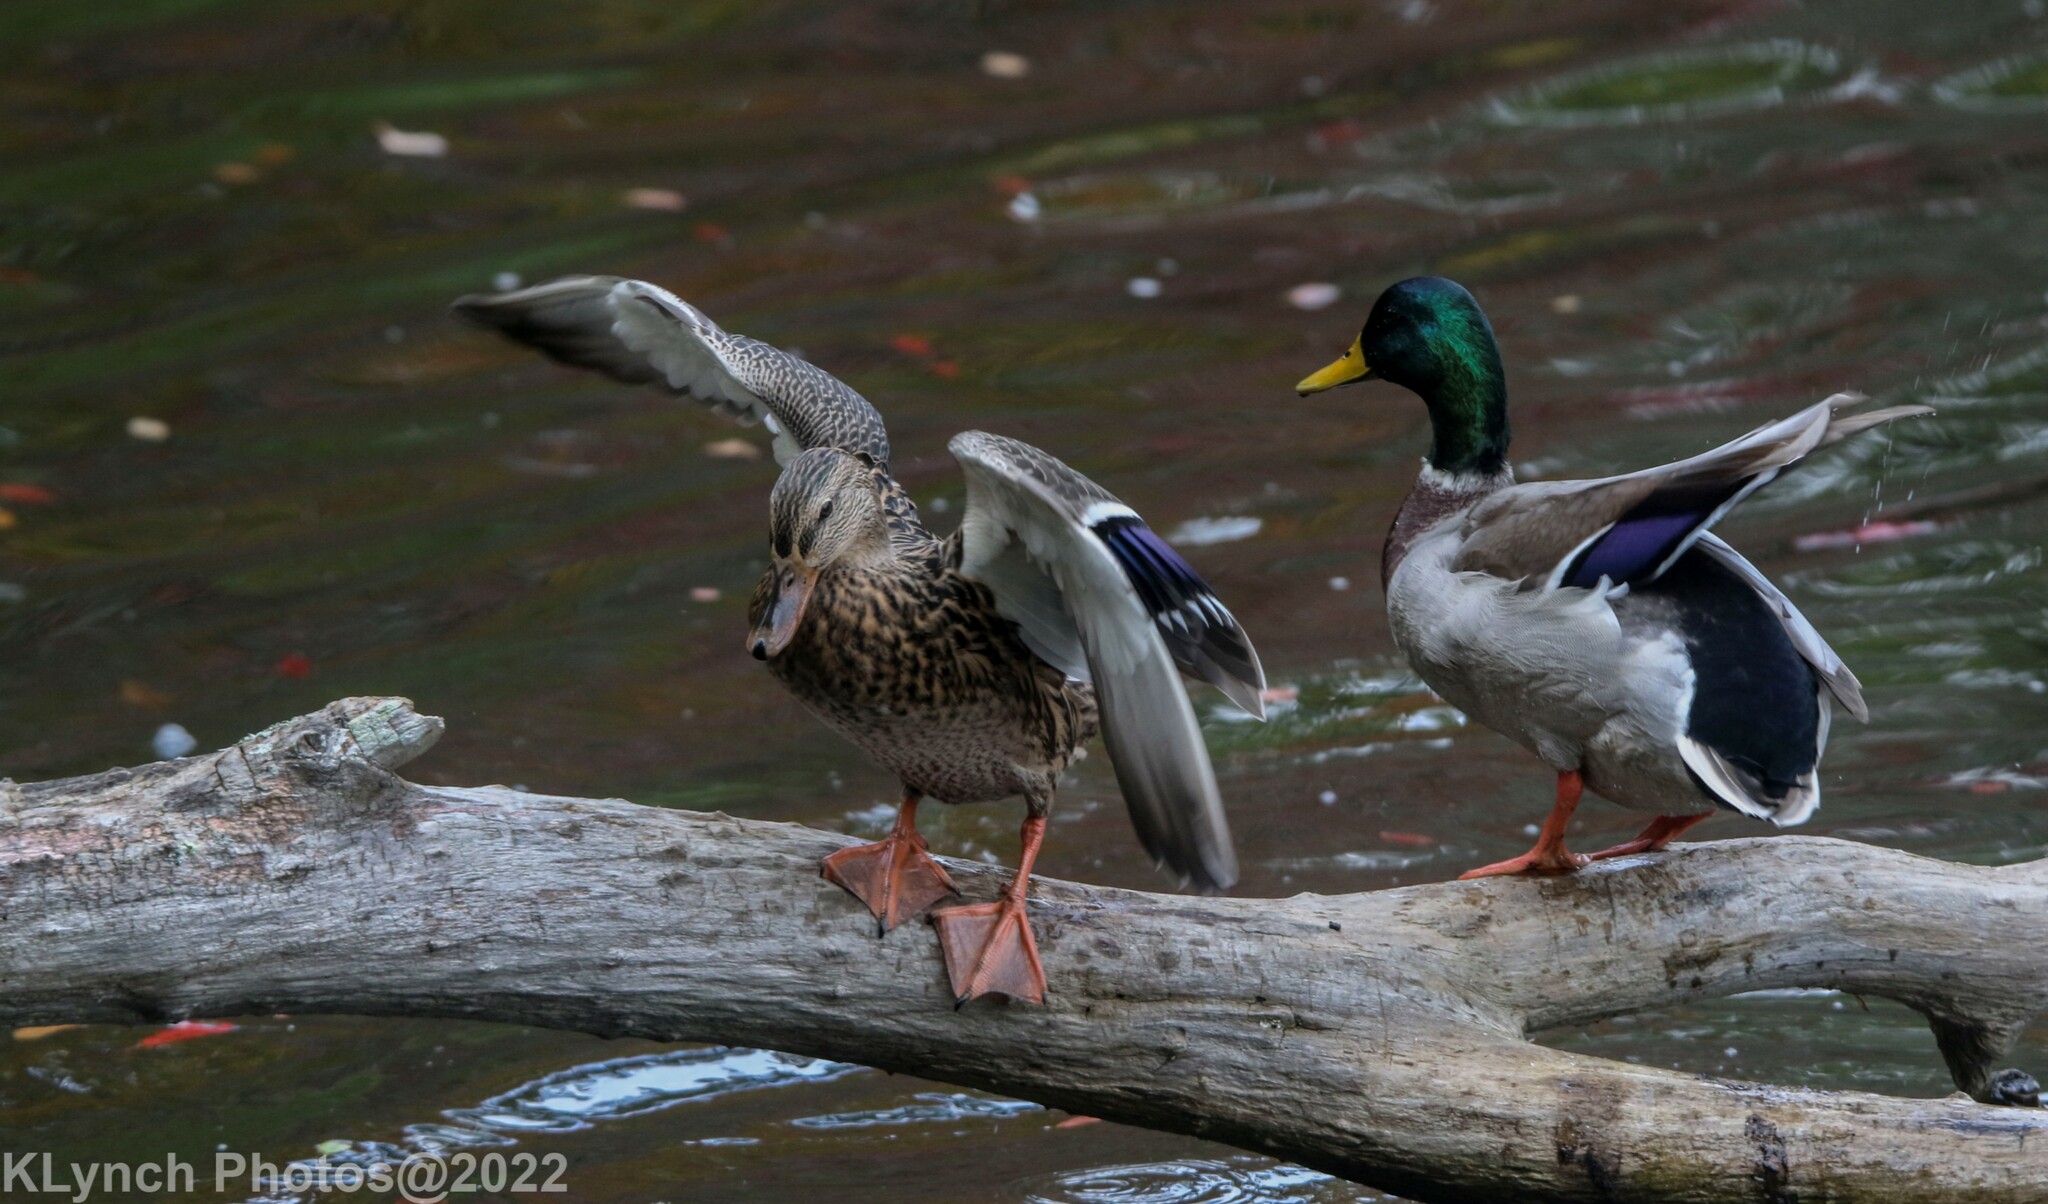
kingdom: Animalia
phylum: Chordata
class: Aves
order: Anseriformes
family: Anatidae
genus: Anas
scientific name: Anas platyrhynchos
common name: Mallard
